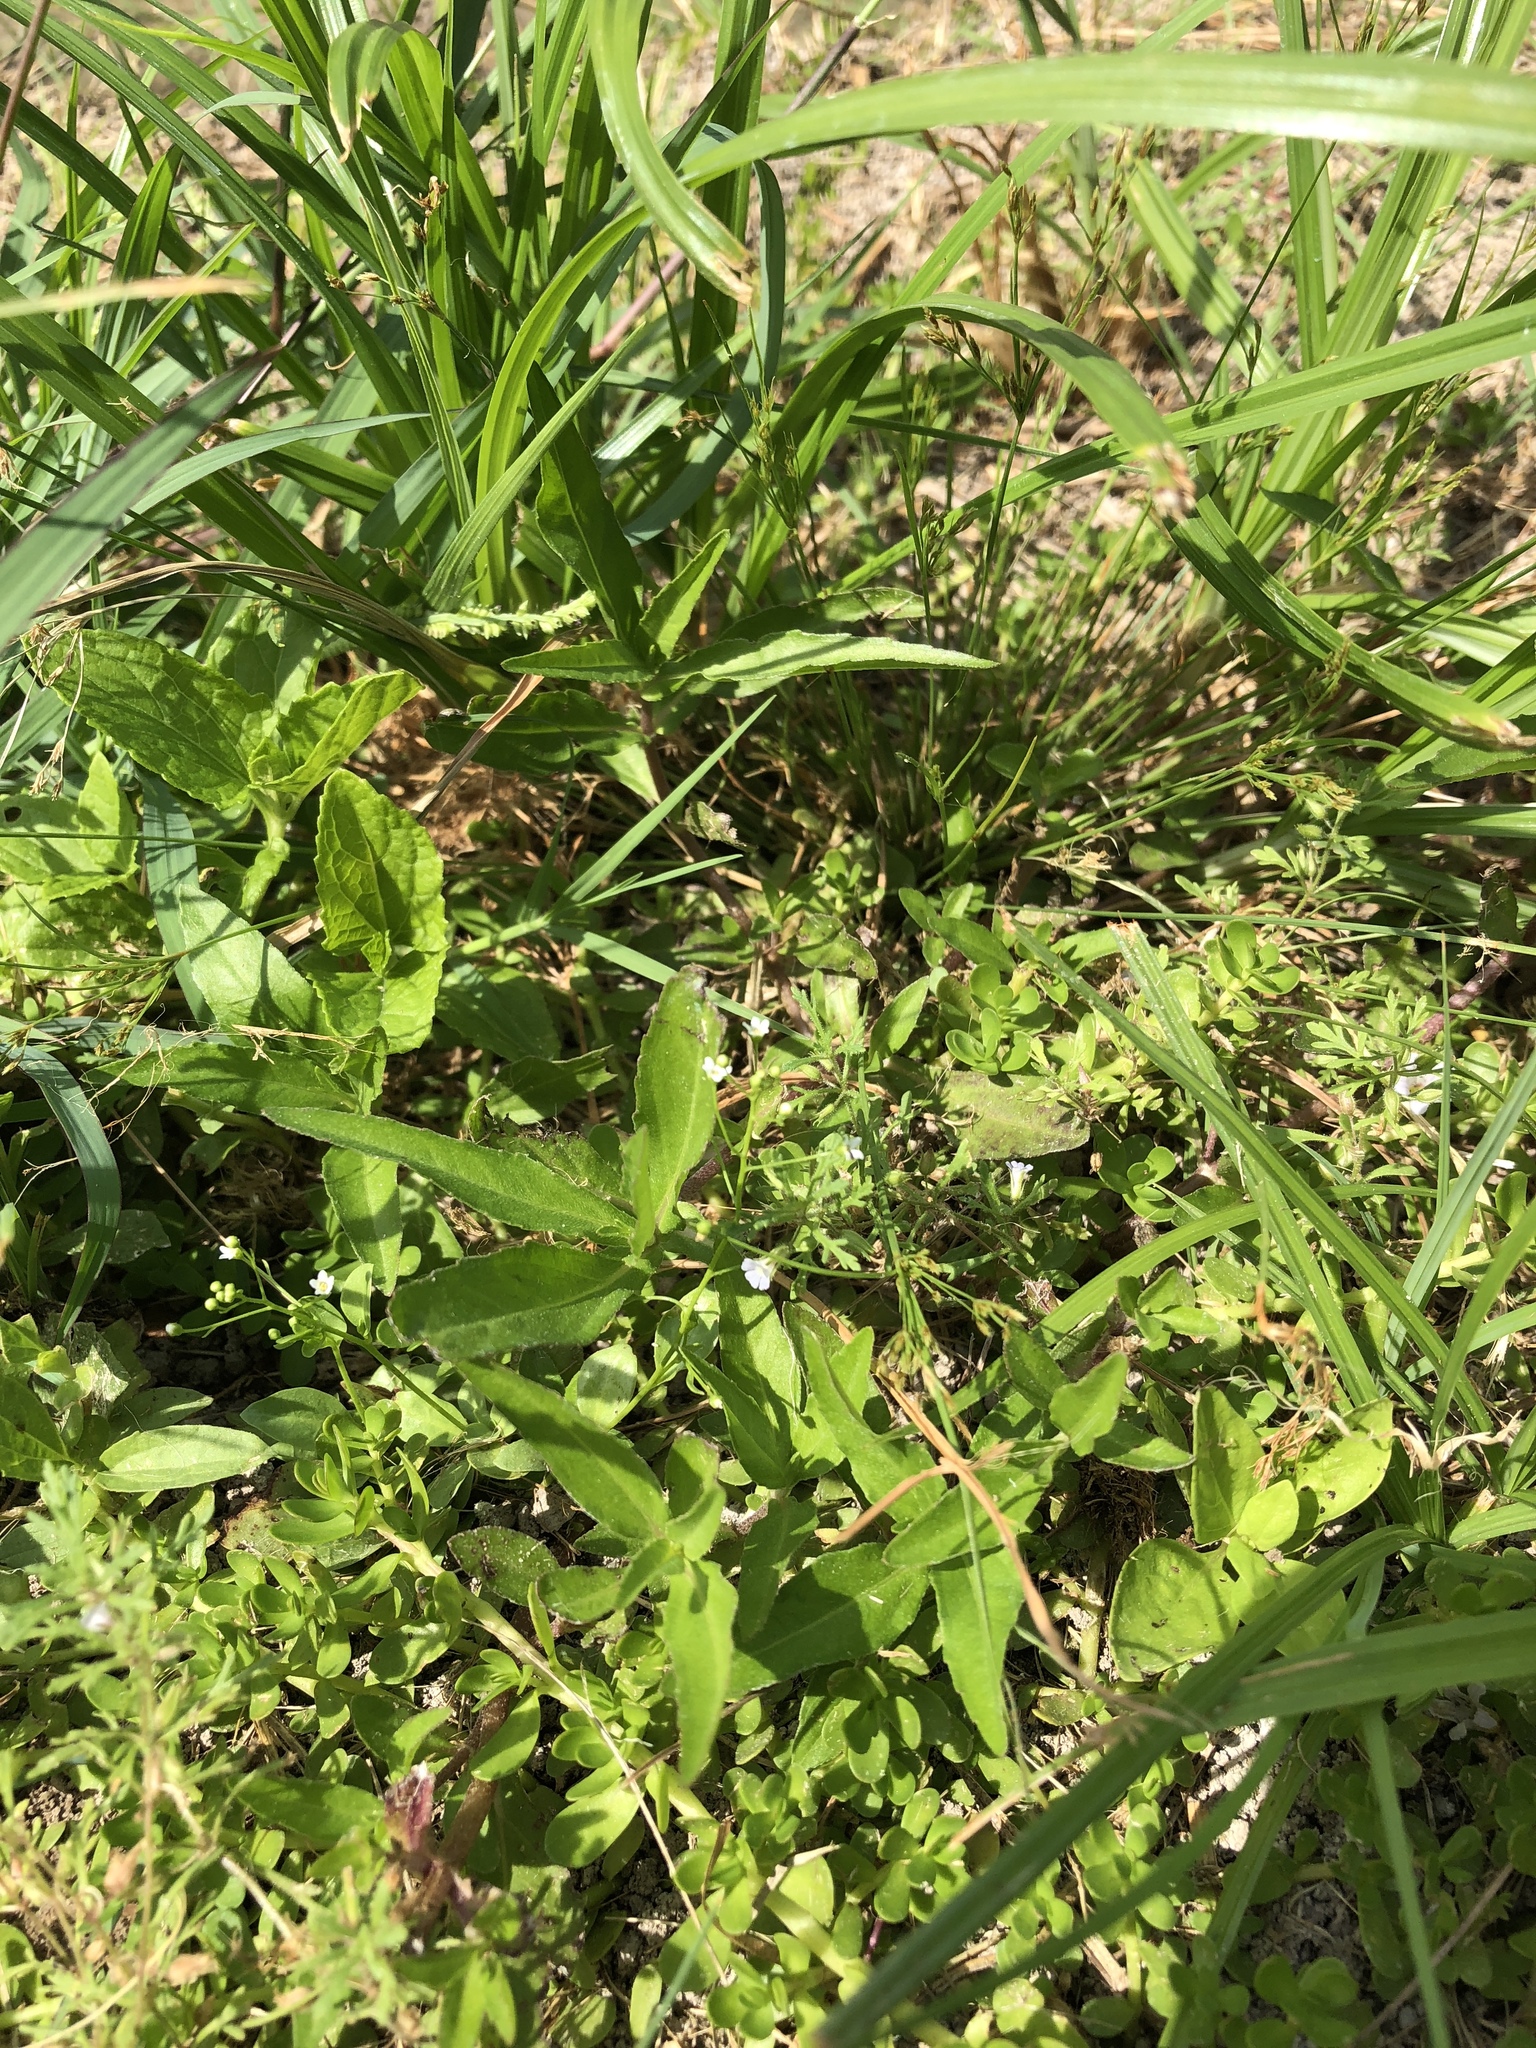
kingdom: Plantae
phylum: Tracheophyta
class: Magnoliopsida
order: Ericales
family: Primulaceae
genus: Samolus
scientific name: Samolus parviflorus
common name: False water pimpernel
